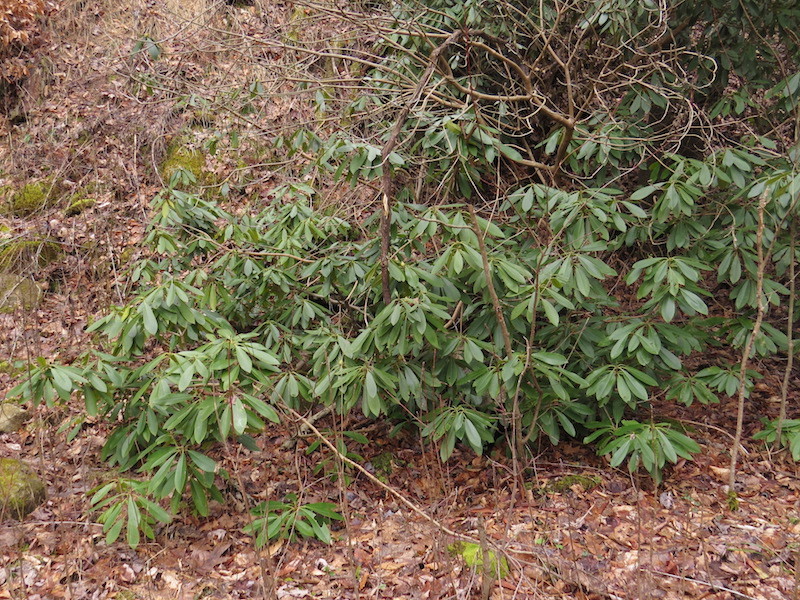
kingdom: Plantae
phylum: Tracheophyta
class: Magnoliopsida
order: Ericales
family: Ericaceae
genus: Rhododendron
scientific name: Rhododendron maximum
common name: Great rhododendron
